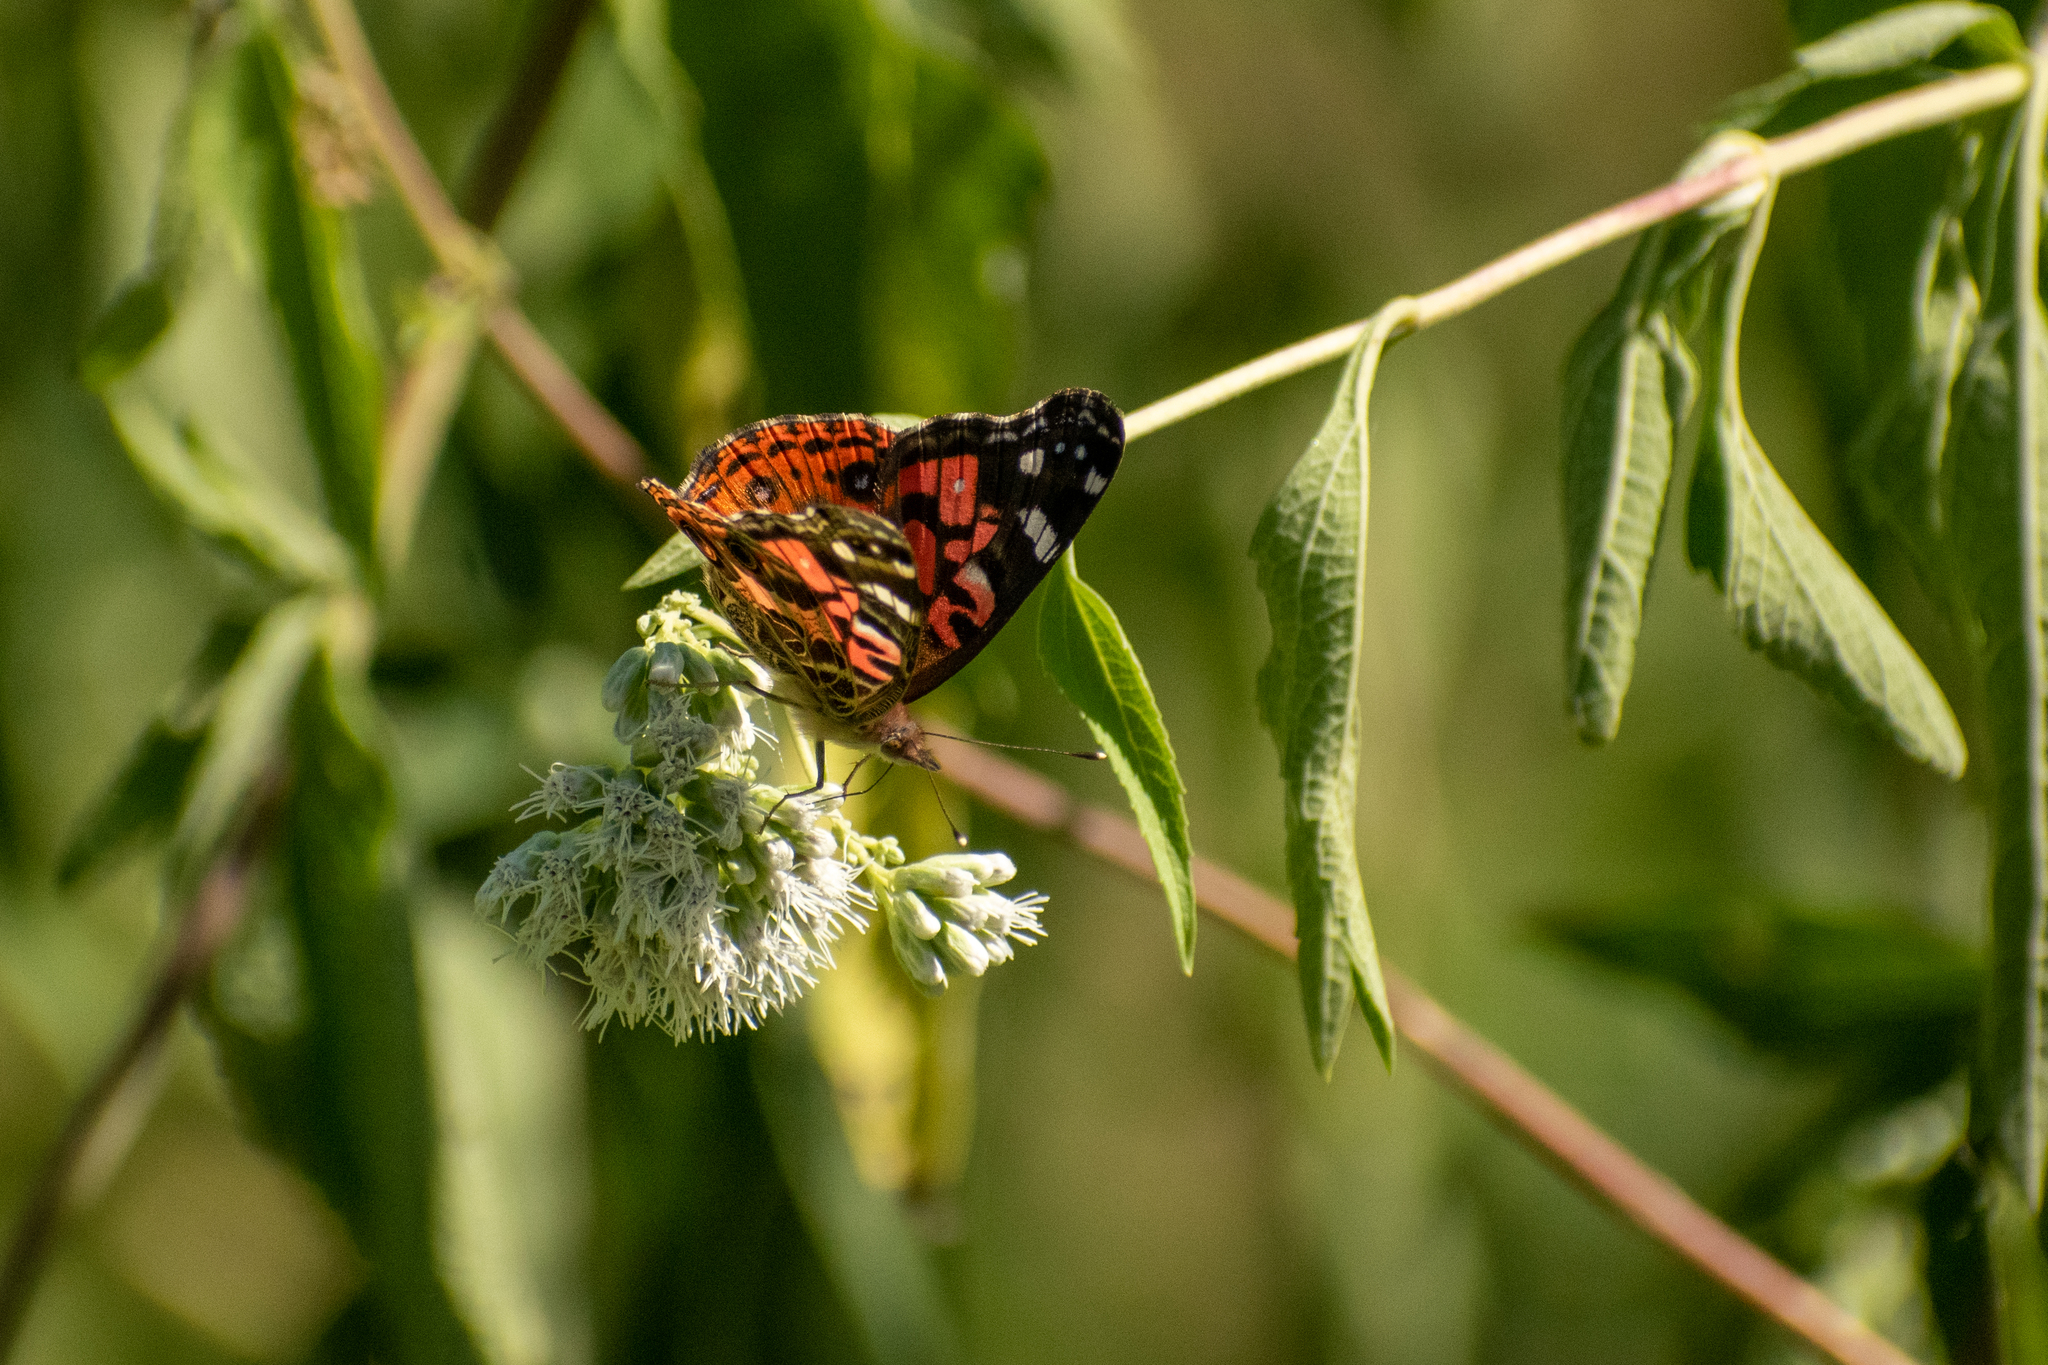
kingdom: Animalia
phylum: Arthropoda
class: Insecta
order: Lepidoptera
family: Nymphalidae
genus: Vanessa
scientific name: Vanessa braziliensis
